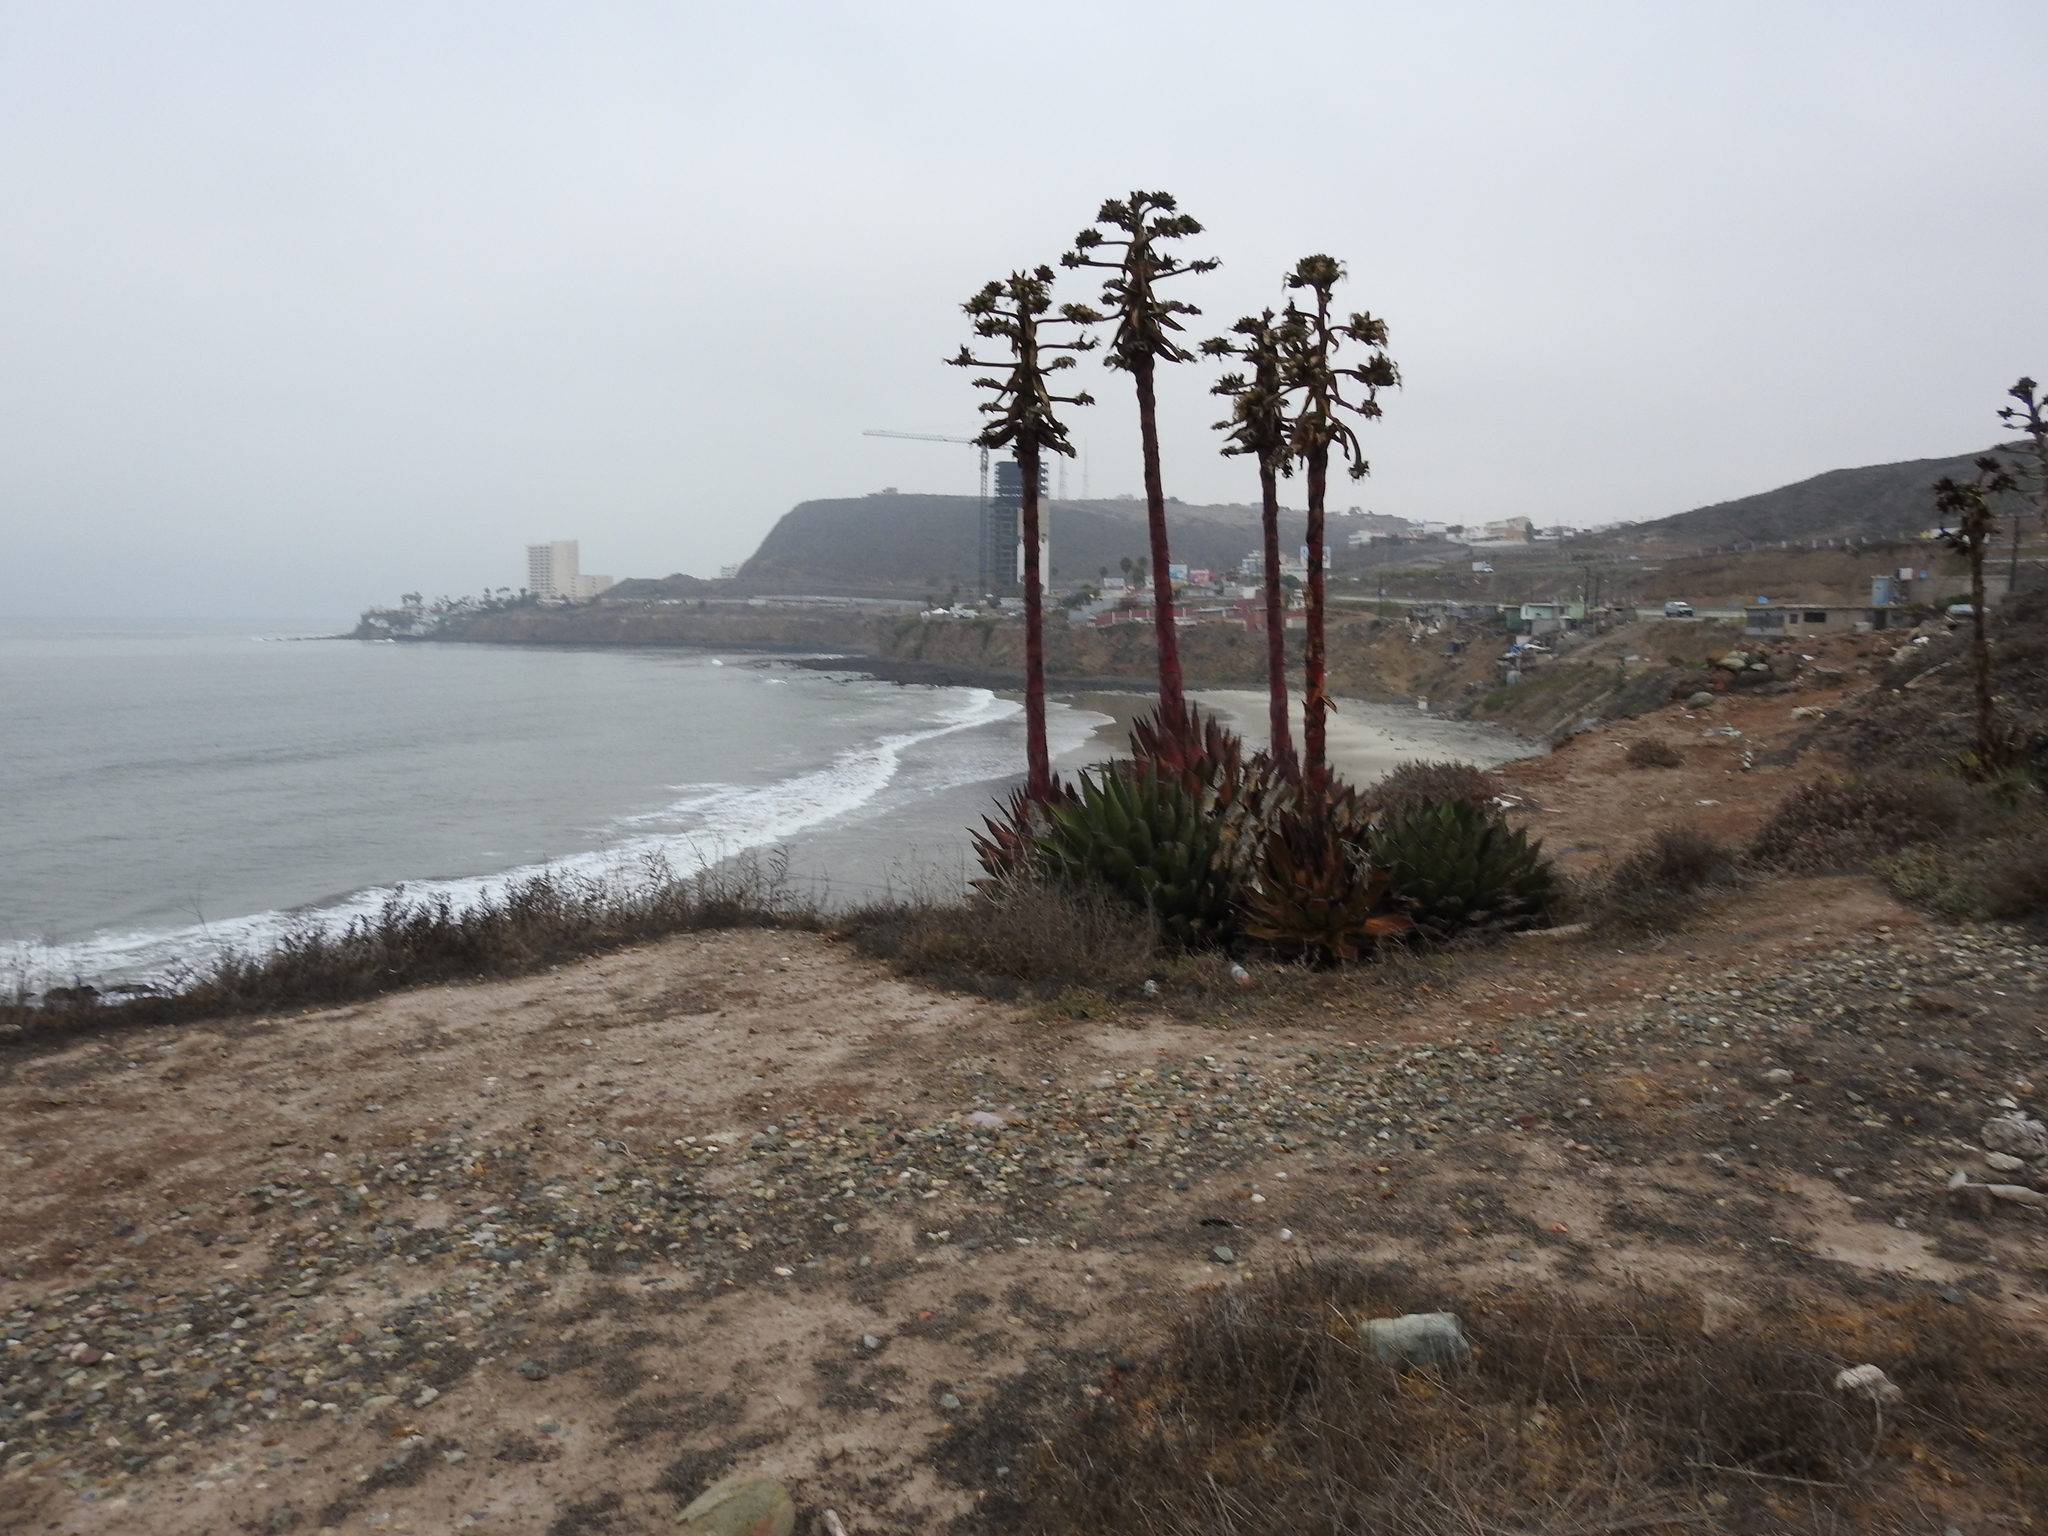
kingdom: Plantae
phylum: Tracheophyta
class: Liliopsida
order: Asparagales
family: Asparagaceae
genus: Agave
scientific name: Agave shawii
